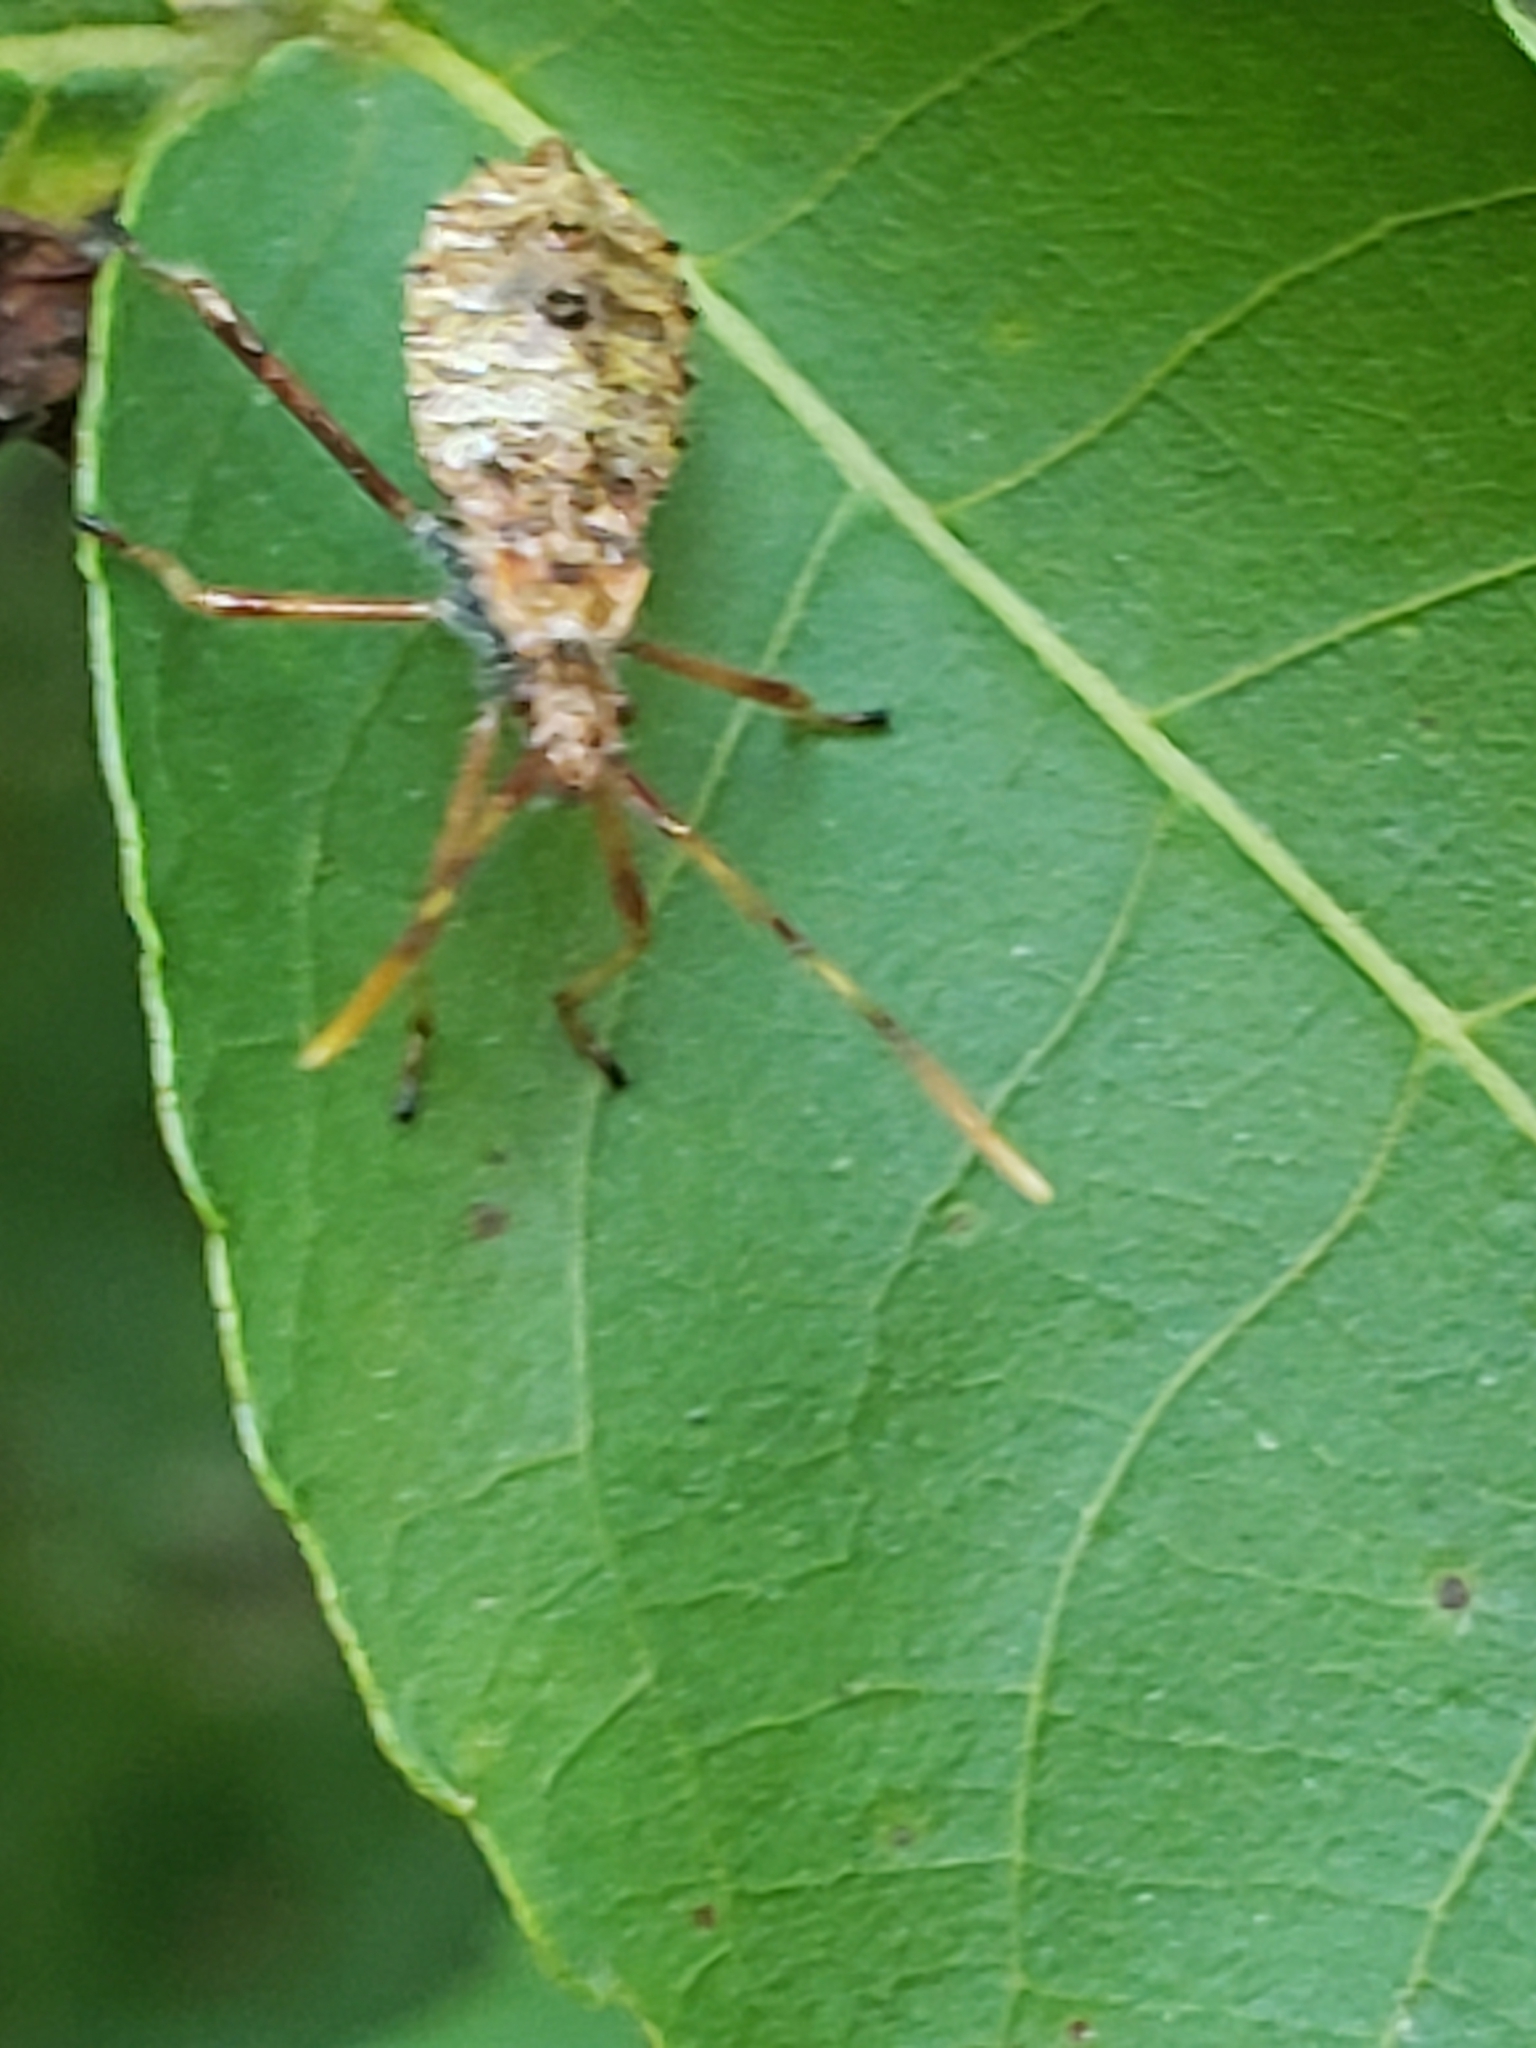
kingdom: Animalia
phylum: Arthropoda
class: Insecta
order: Hemiptera
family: Coreidae
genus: Leptoglossus
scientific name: Leptoglossus fulvicornis
